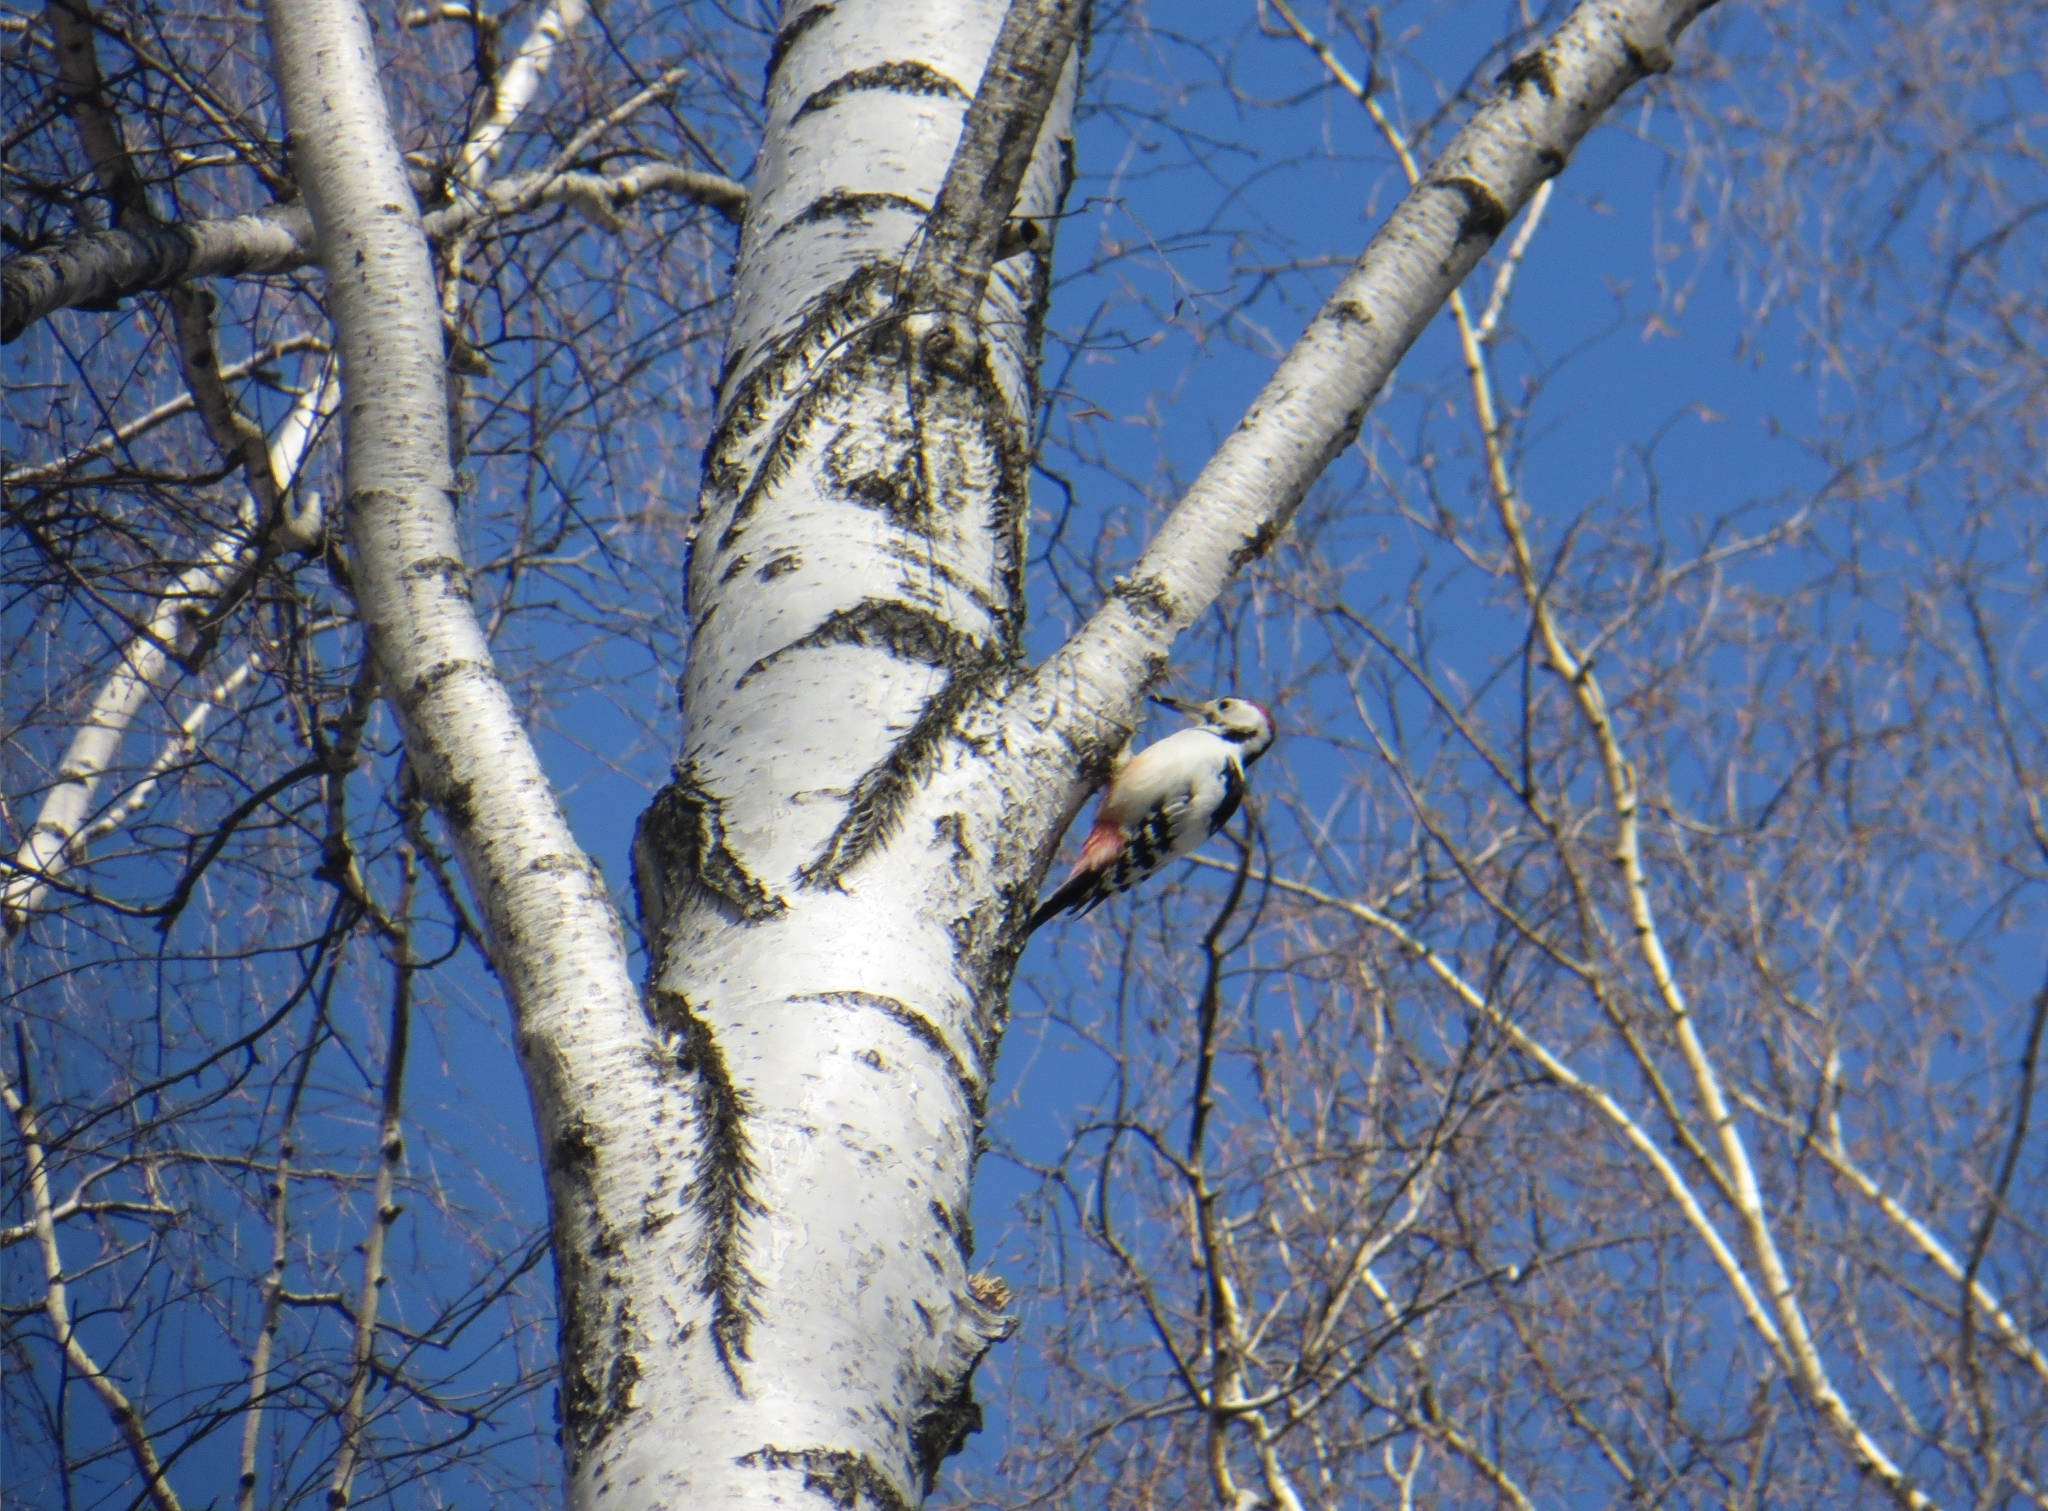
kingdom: Animalia
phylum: Chordata
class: Aves
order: Piciformes
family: Picidae
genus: Dendrocopos
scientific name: Dendrocopos leucotos
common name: White-backed woodpecker
